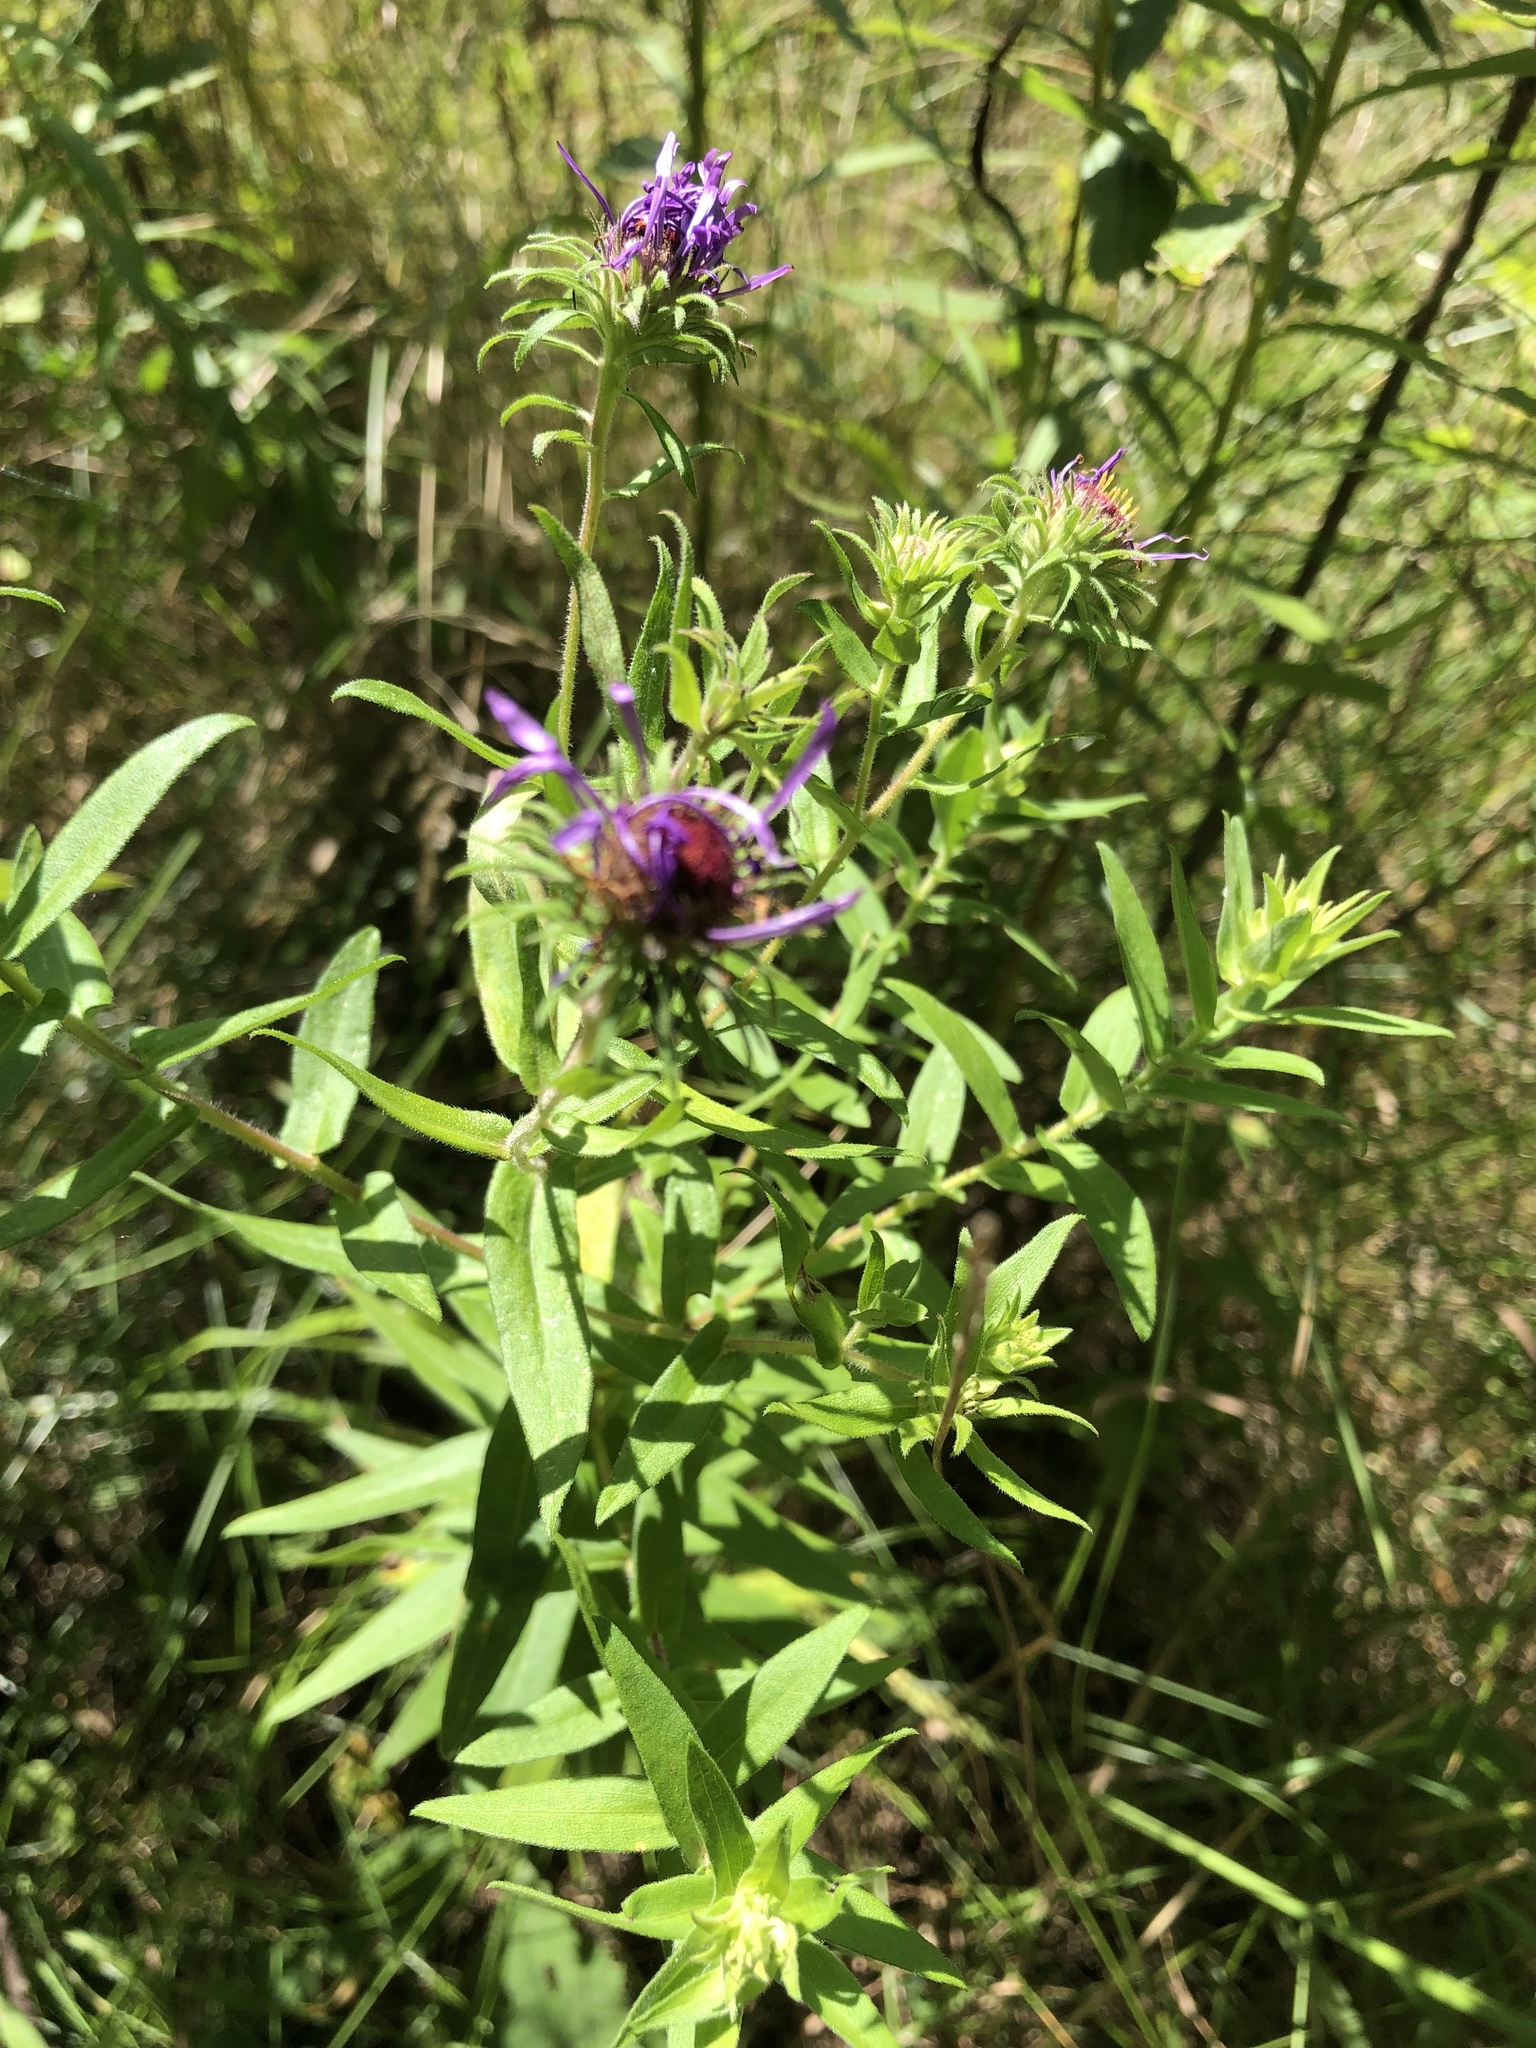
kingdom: Plantae
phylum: Tracheophyta
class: Magnoliopsida
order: Asterales
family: Asteraceae
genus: Symphyotrichum
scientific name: Symphyotrichum novae-angliae
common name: Michaelmas daisy
